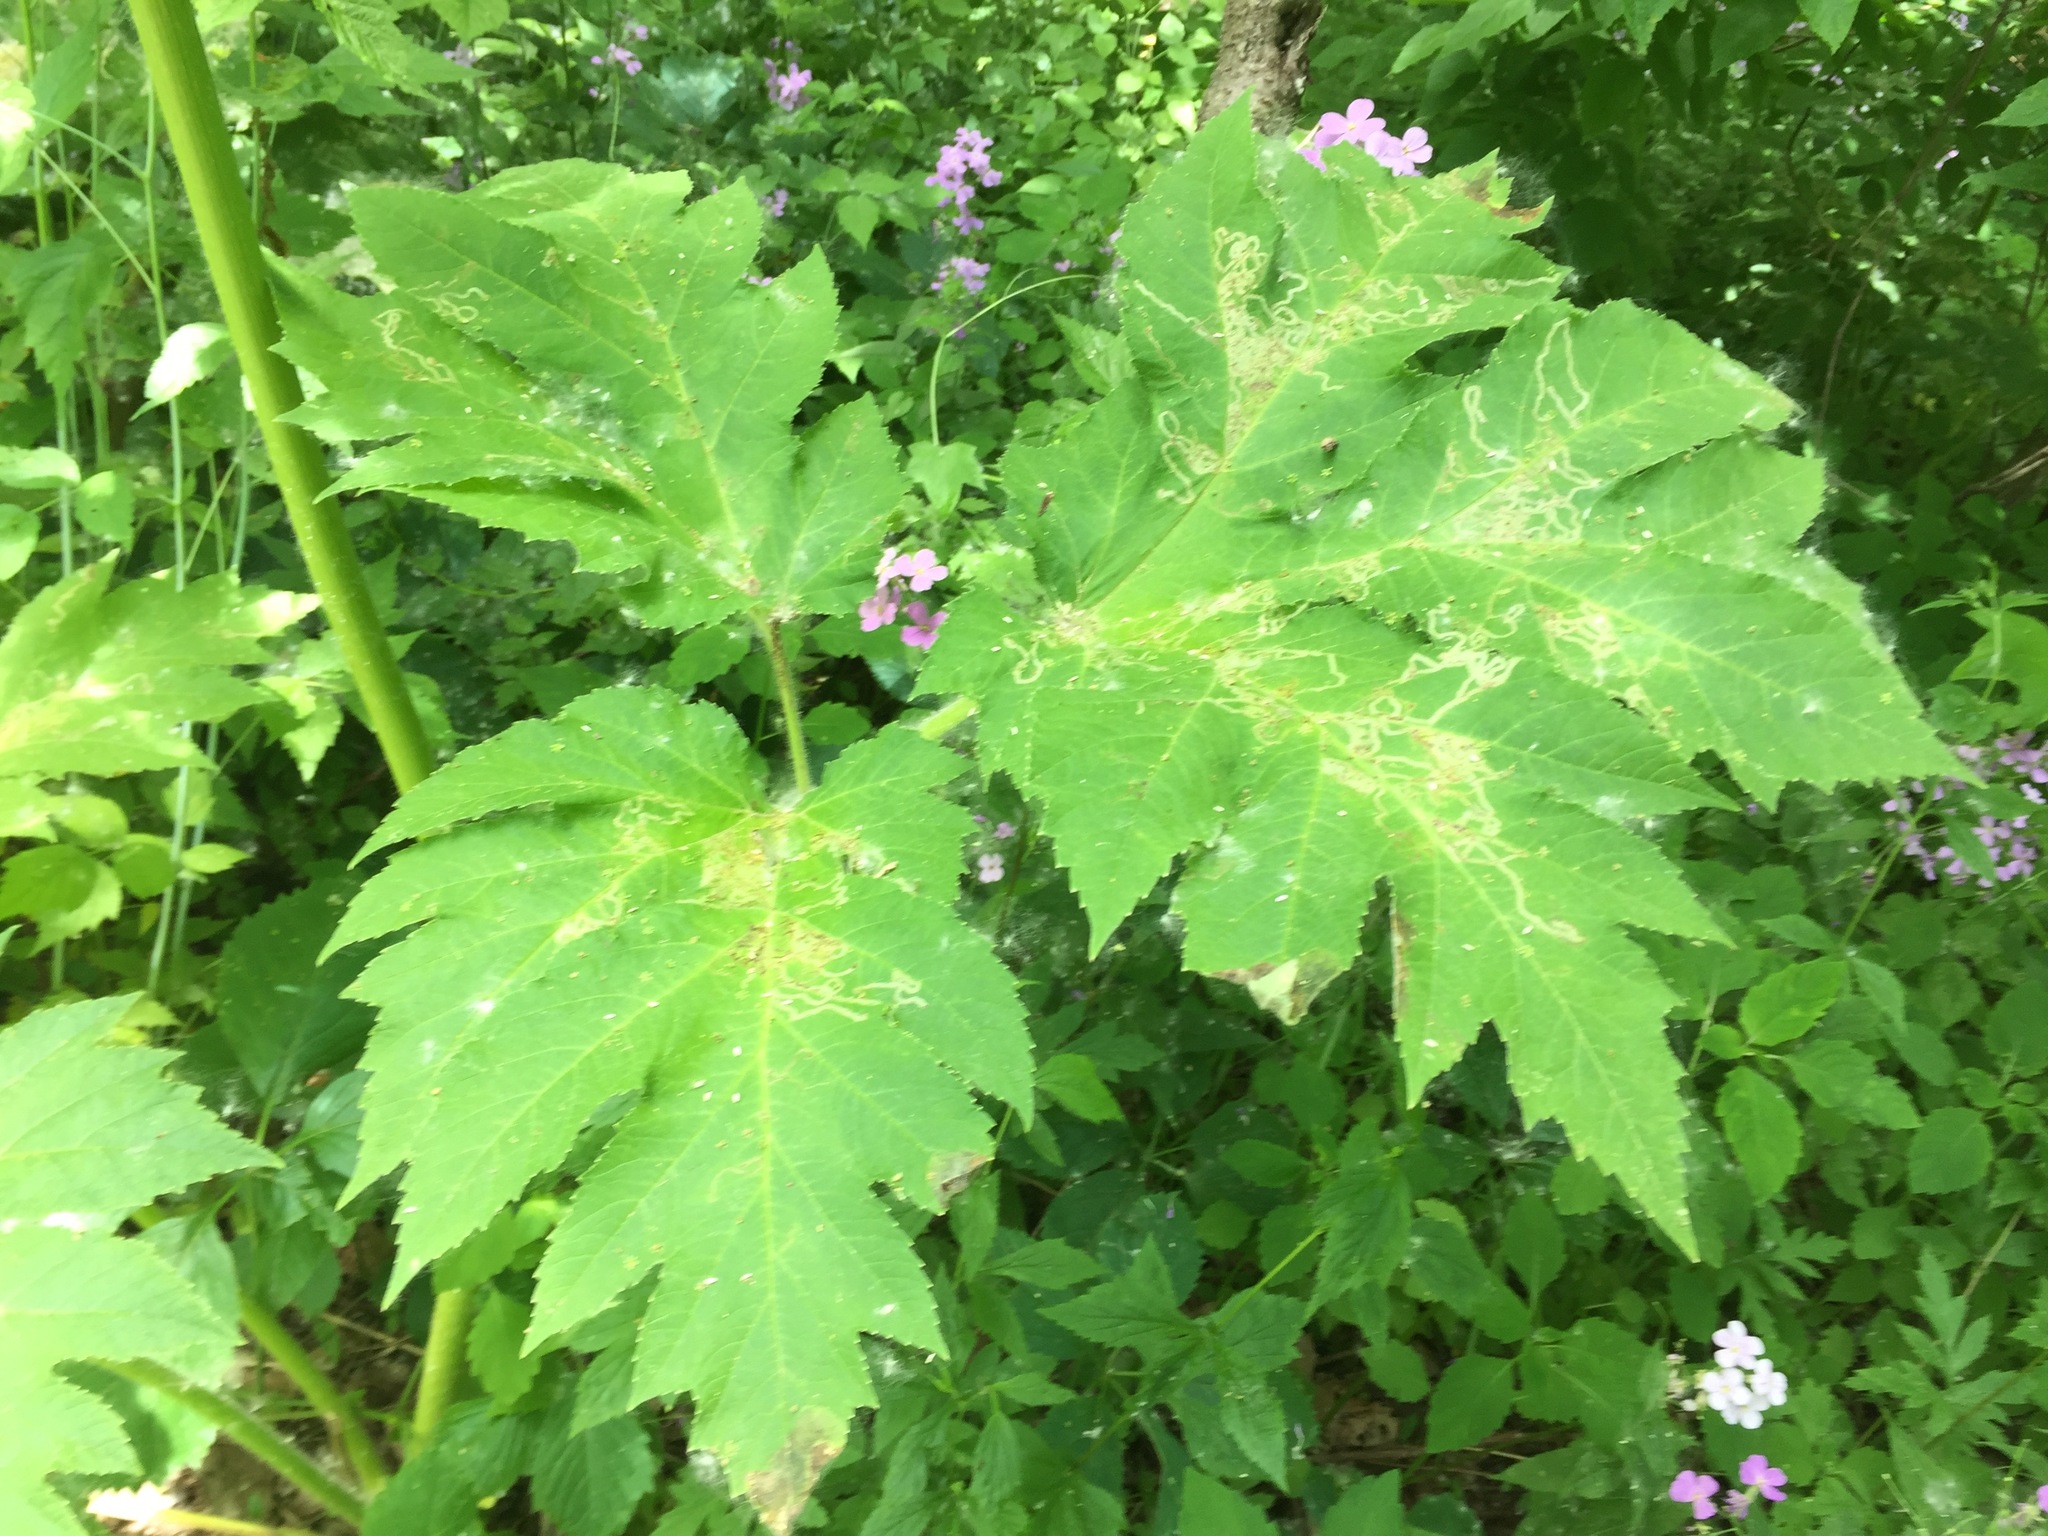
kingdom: Plantae
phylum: Tracheophyta
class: Magnoliopsida
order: Apiales
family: Apiaceae
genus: Heracleum
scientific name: Heracleum maximum
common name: American cow parsnip
